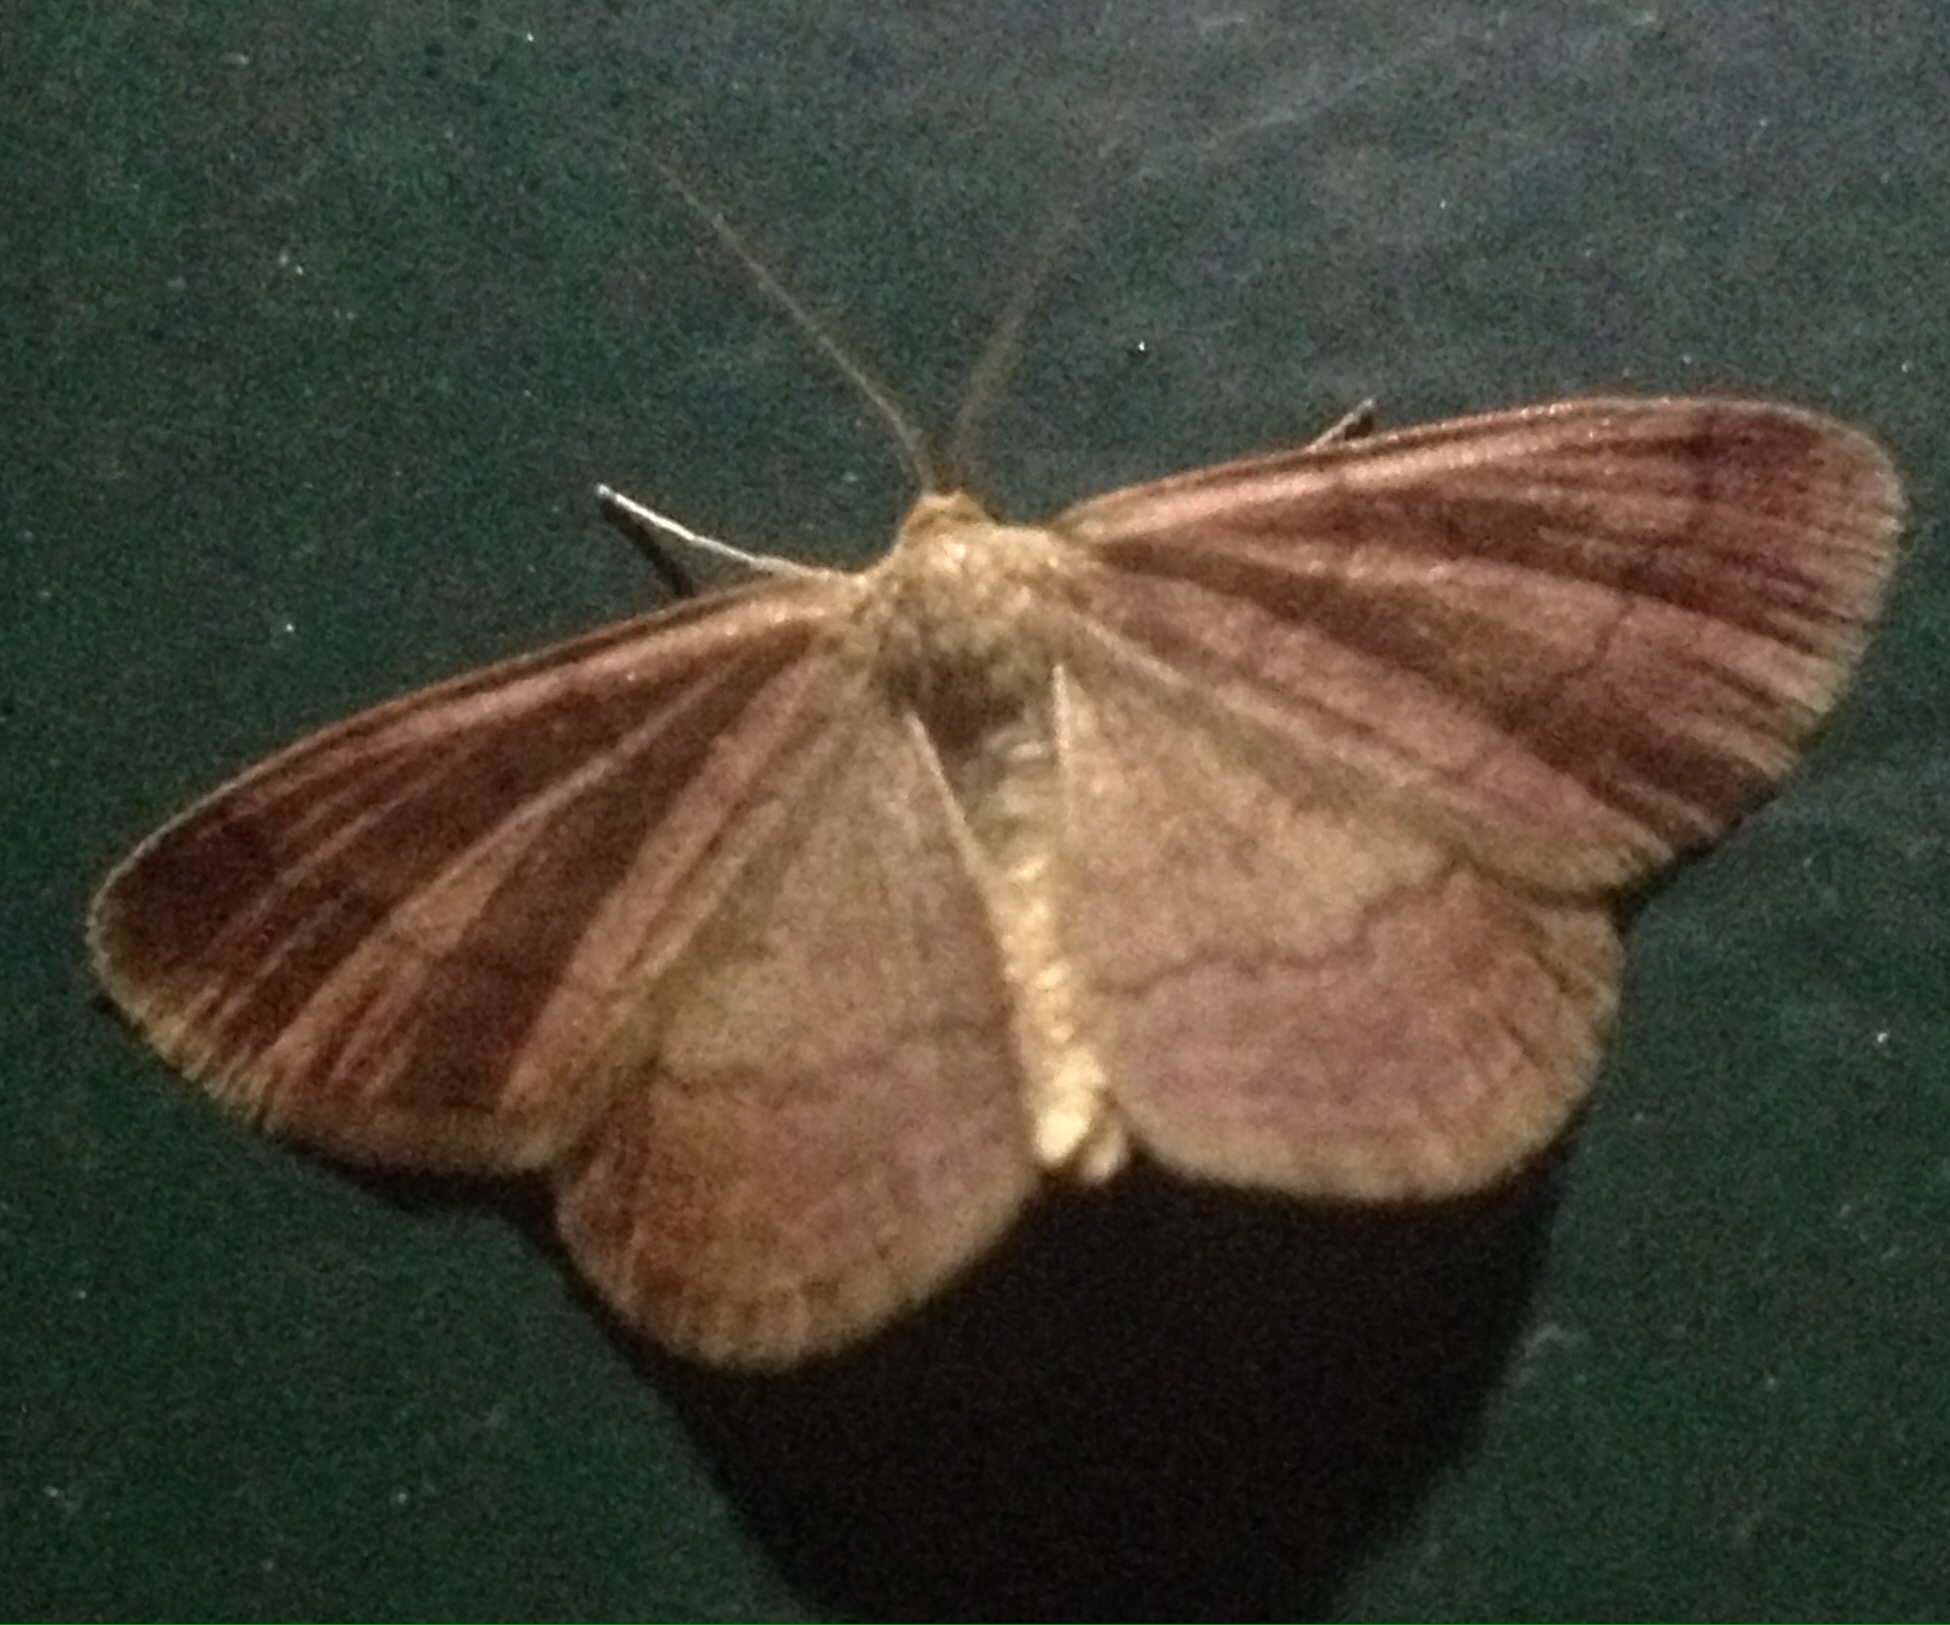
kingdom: Animalia
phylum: Arthropoda
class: Insecta
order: Lepidoptera
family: Geometridae
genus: Scopula
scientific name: Scopula rubiginata
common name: Tawny wave
